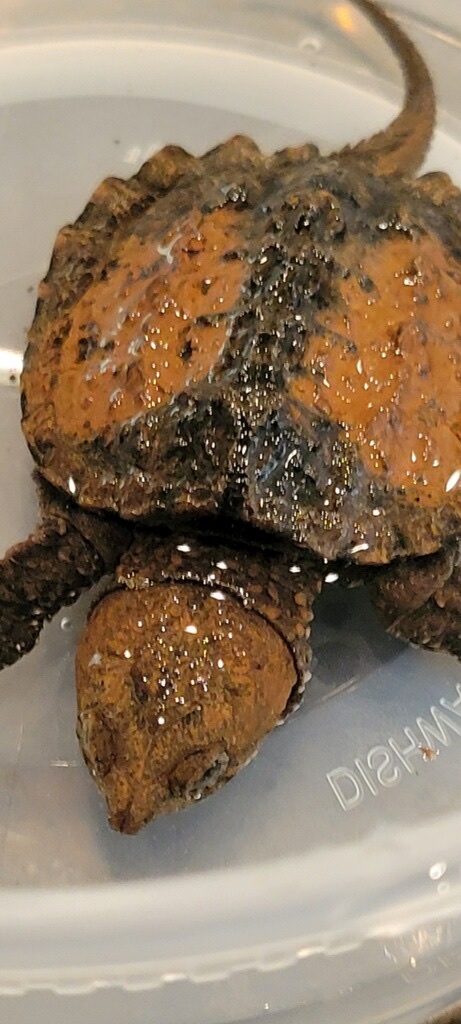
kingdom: Animalia
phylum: Chordata
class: Testudines
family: Chelydridae
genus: Chelydra
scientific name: Chelydra serpentina
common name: Common snapping turtle
